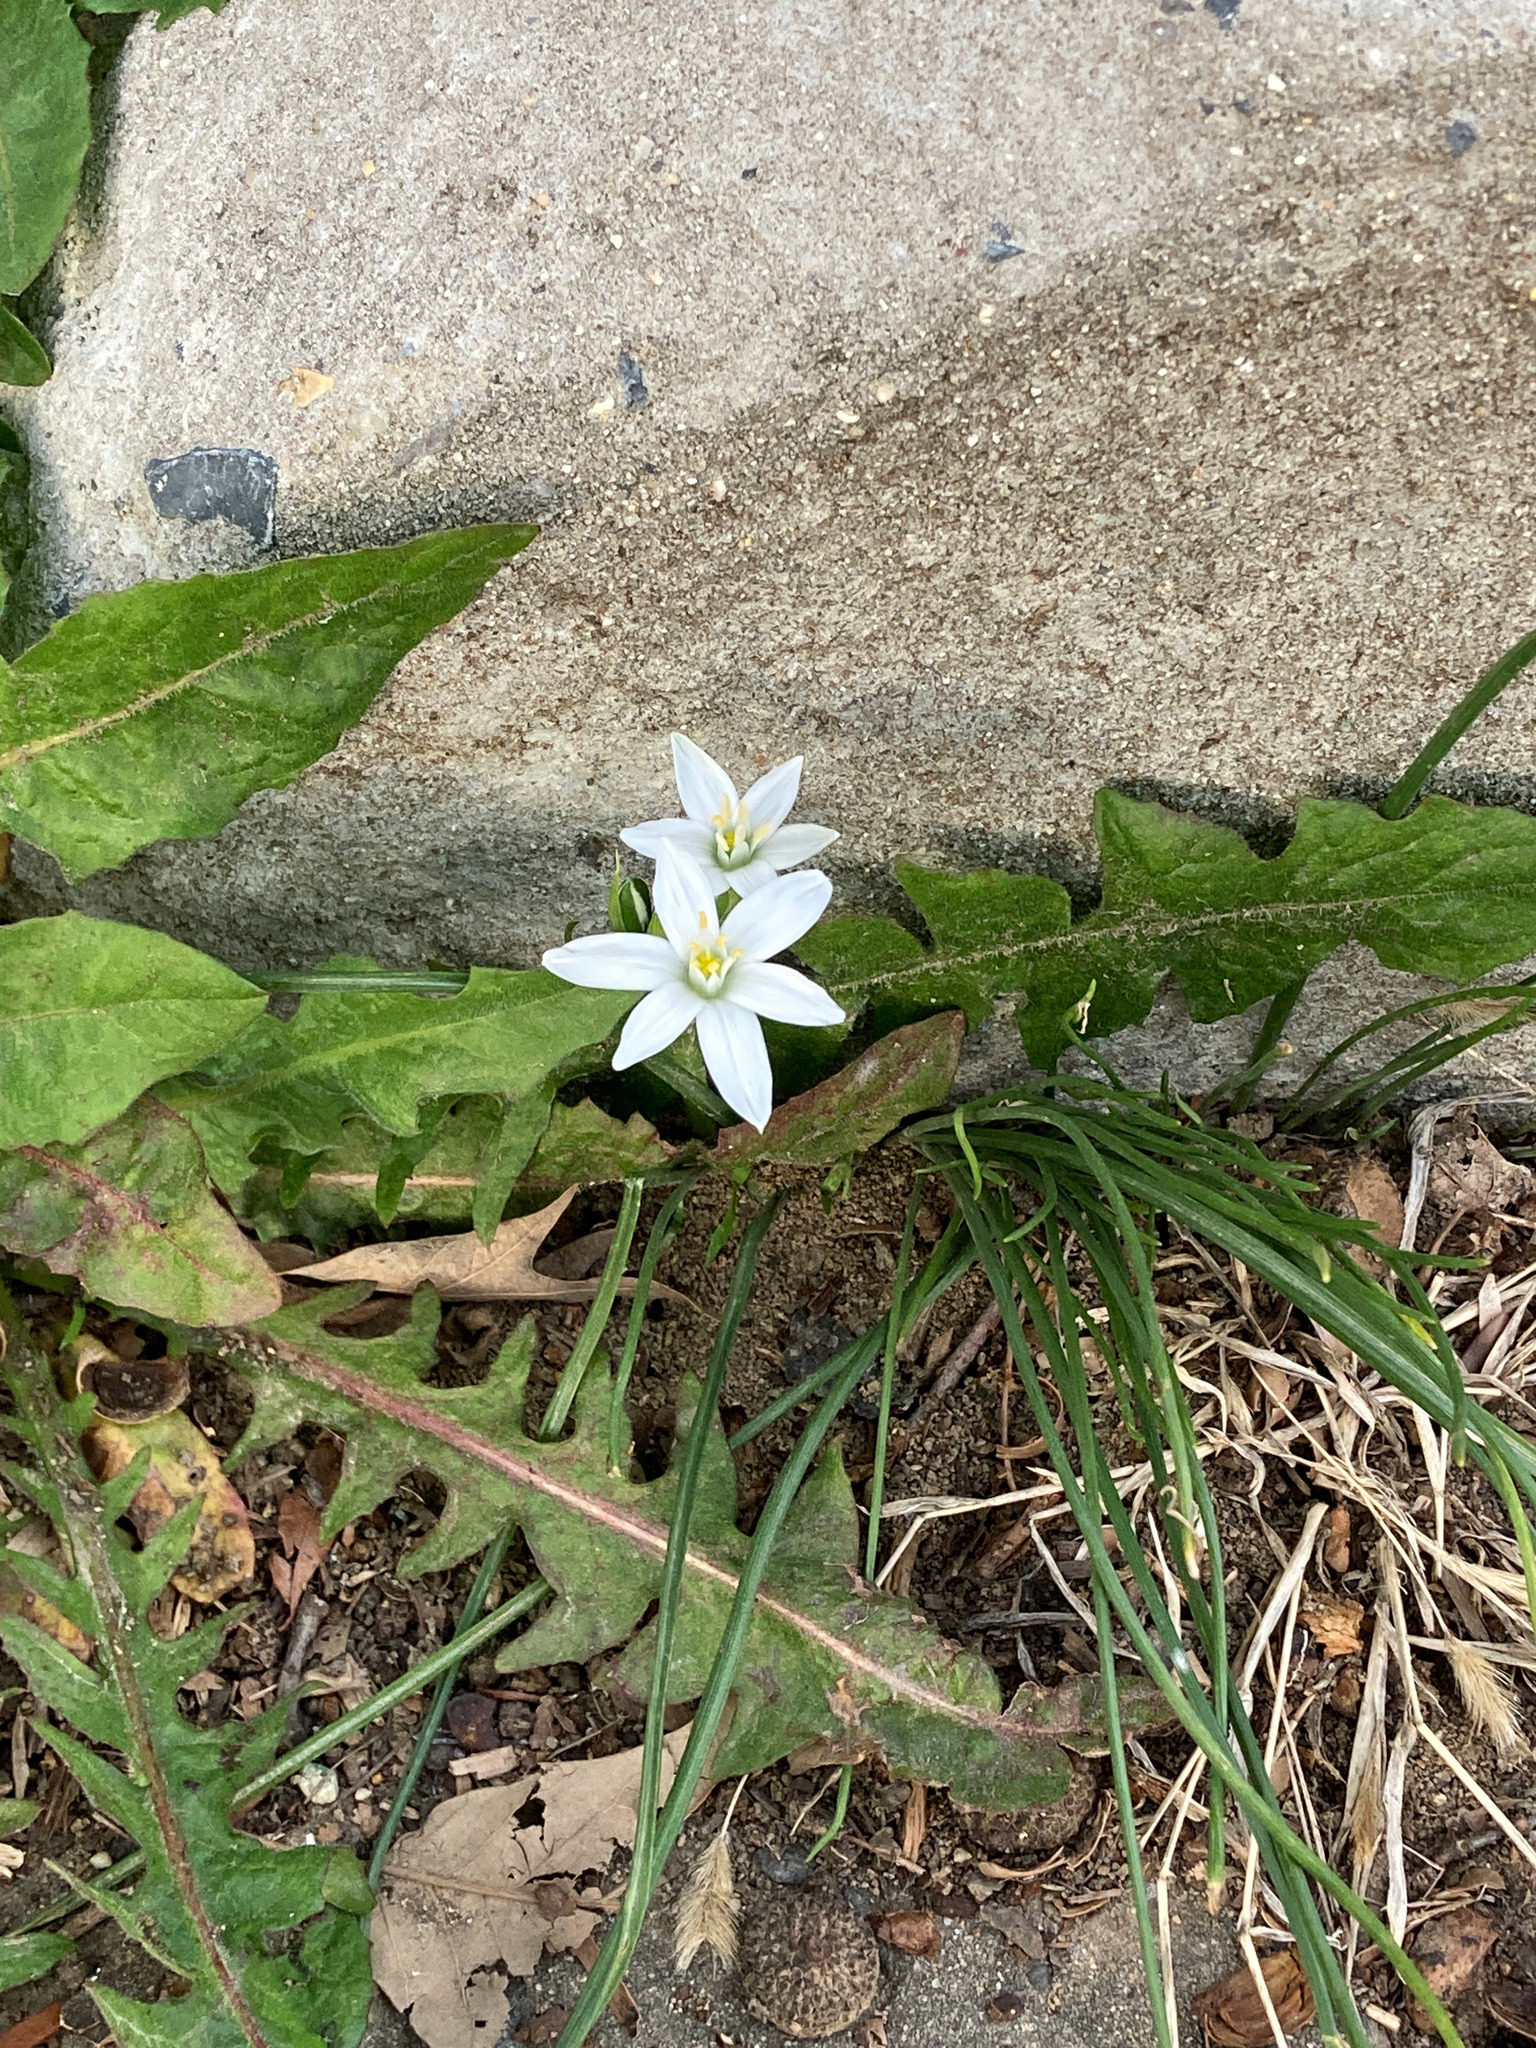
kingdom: Plantae
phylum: Tracheophyta
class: Liliopsida
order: Asparagales
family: Asparagaceae
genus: Ornithogalum
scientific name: Ornithogalum umbellatum
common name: Garden star-of-bethlehem
